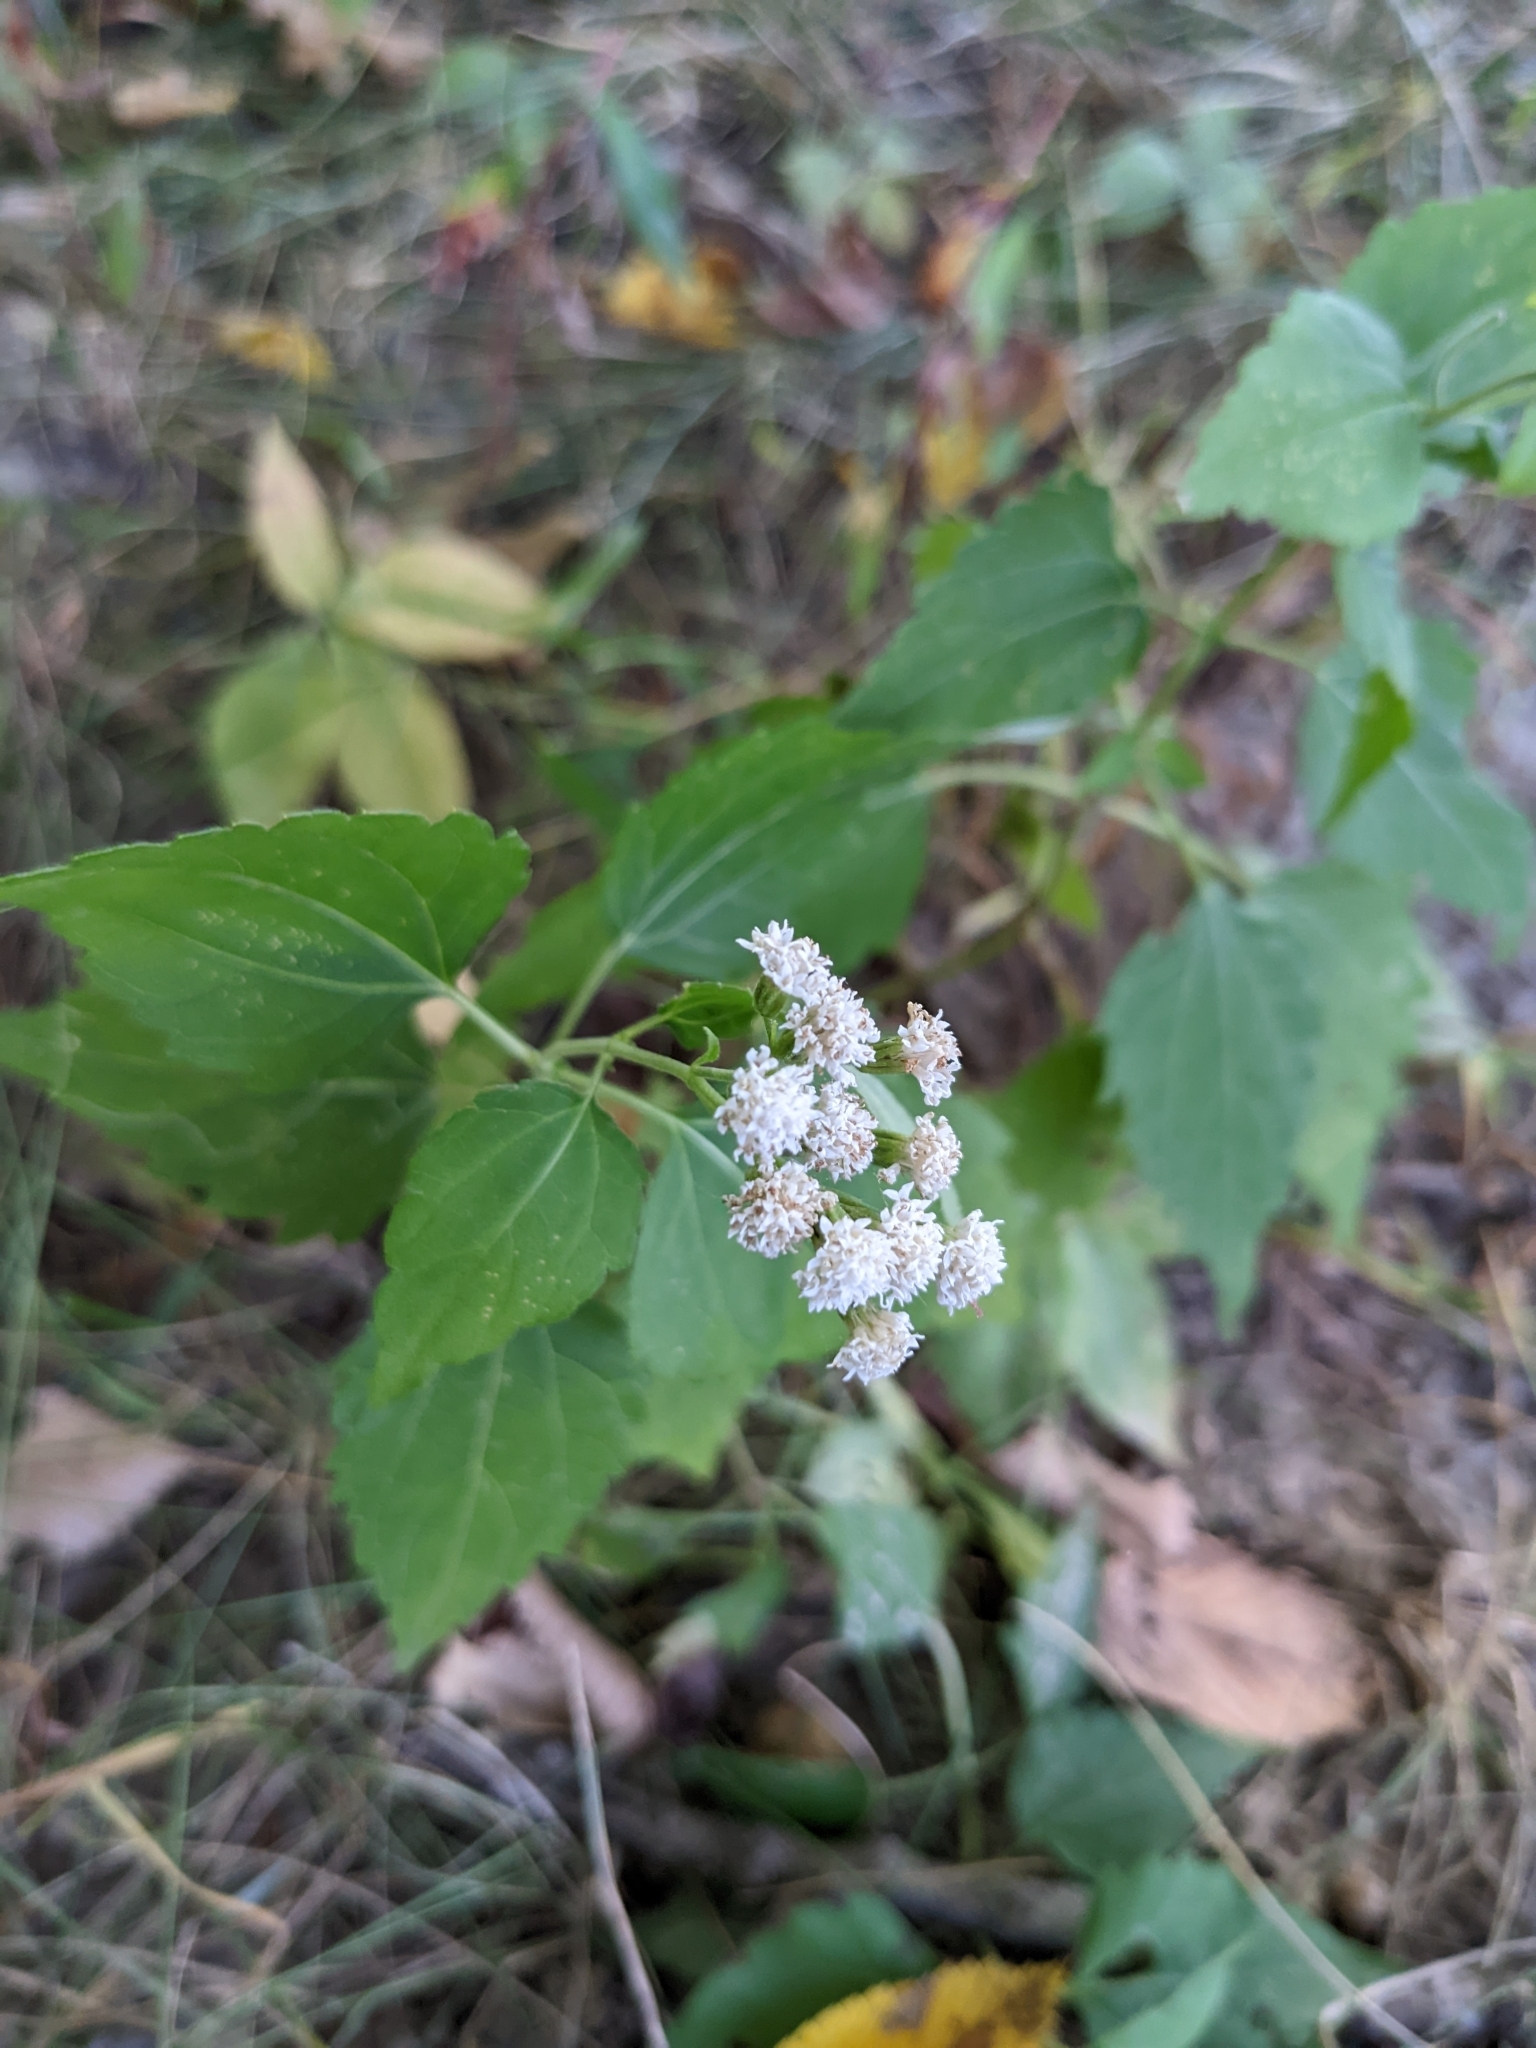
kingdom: Plantae
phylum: Tracheophyta
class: Magnoliopsida
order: Asterales
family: Asteraceae
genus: Ageratina
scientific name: Ageratina altissima
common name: White snakeroot
